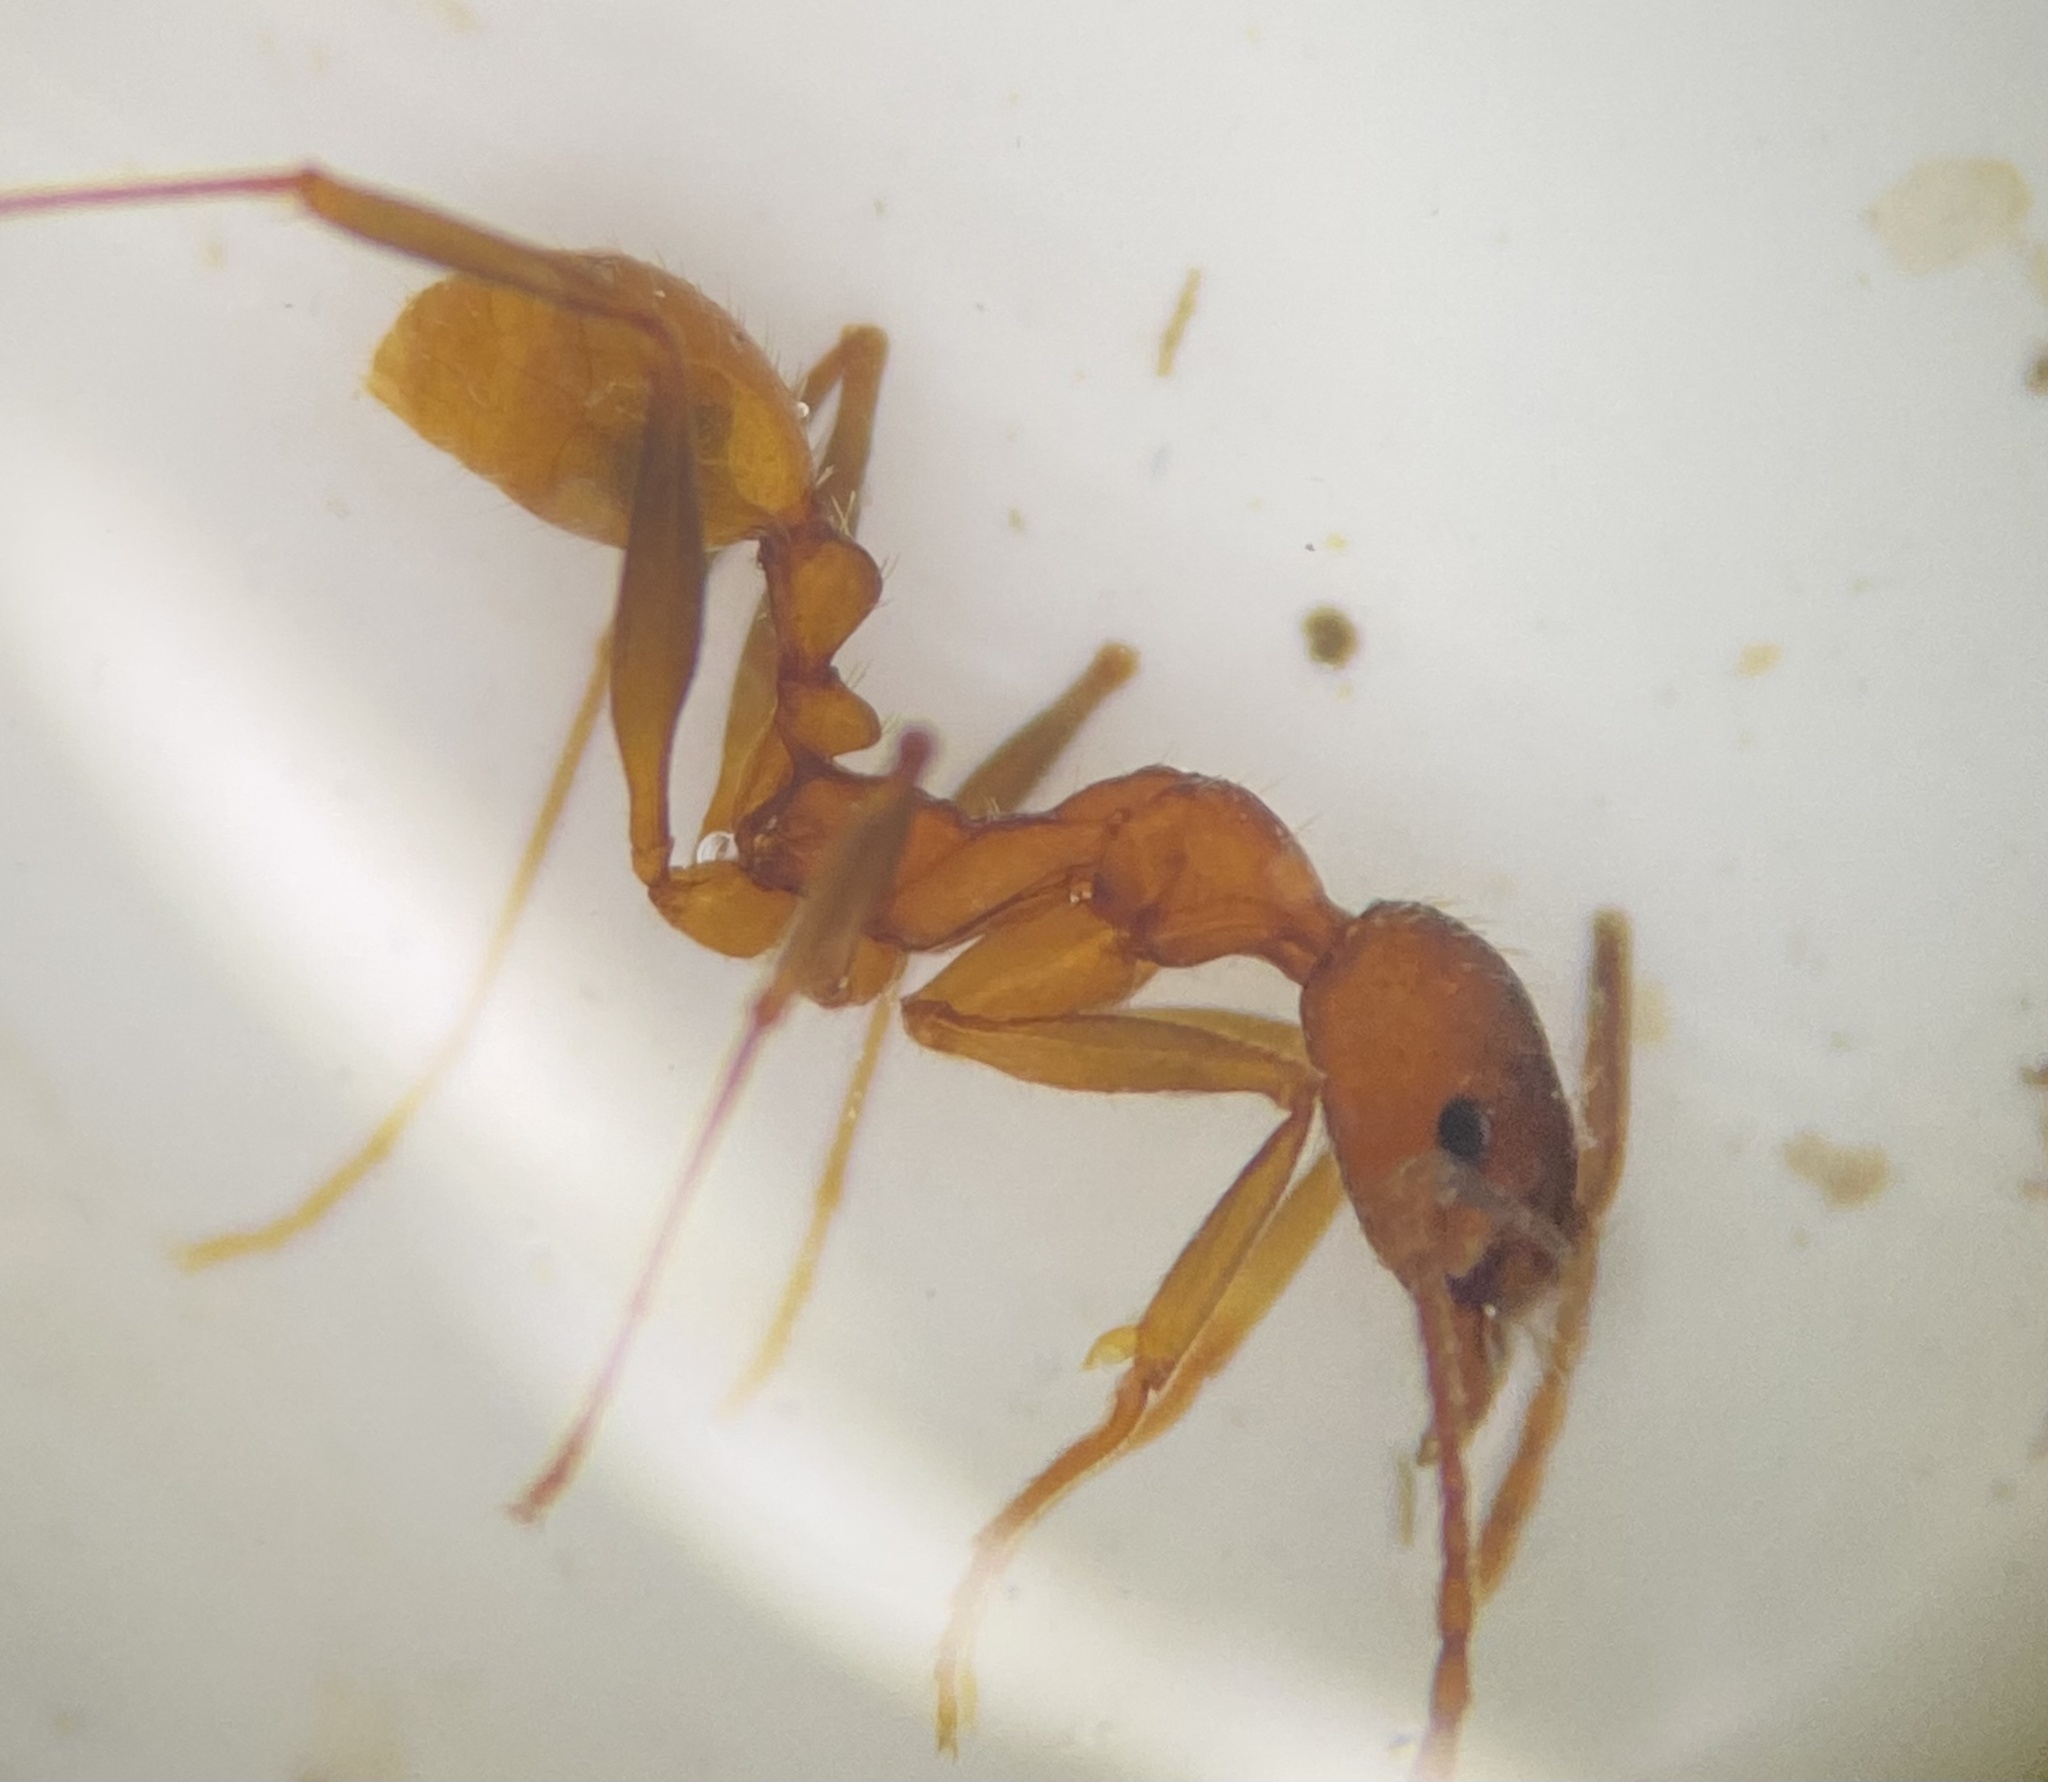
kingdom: Animalia
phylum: Arthropoda
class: Insecta
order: Hymenoptera
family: Formicidae
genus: Aphaenogaster
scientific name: Aphaenogaster texana
